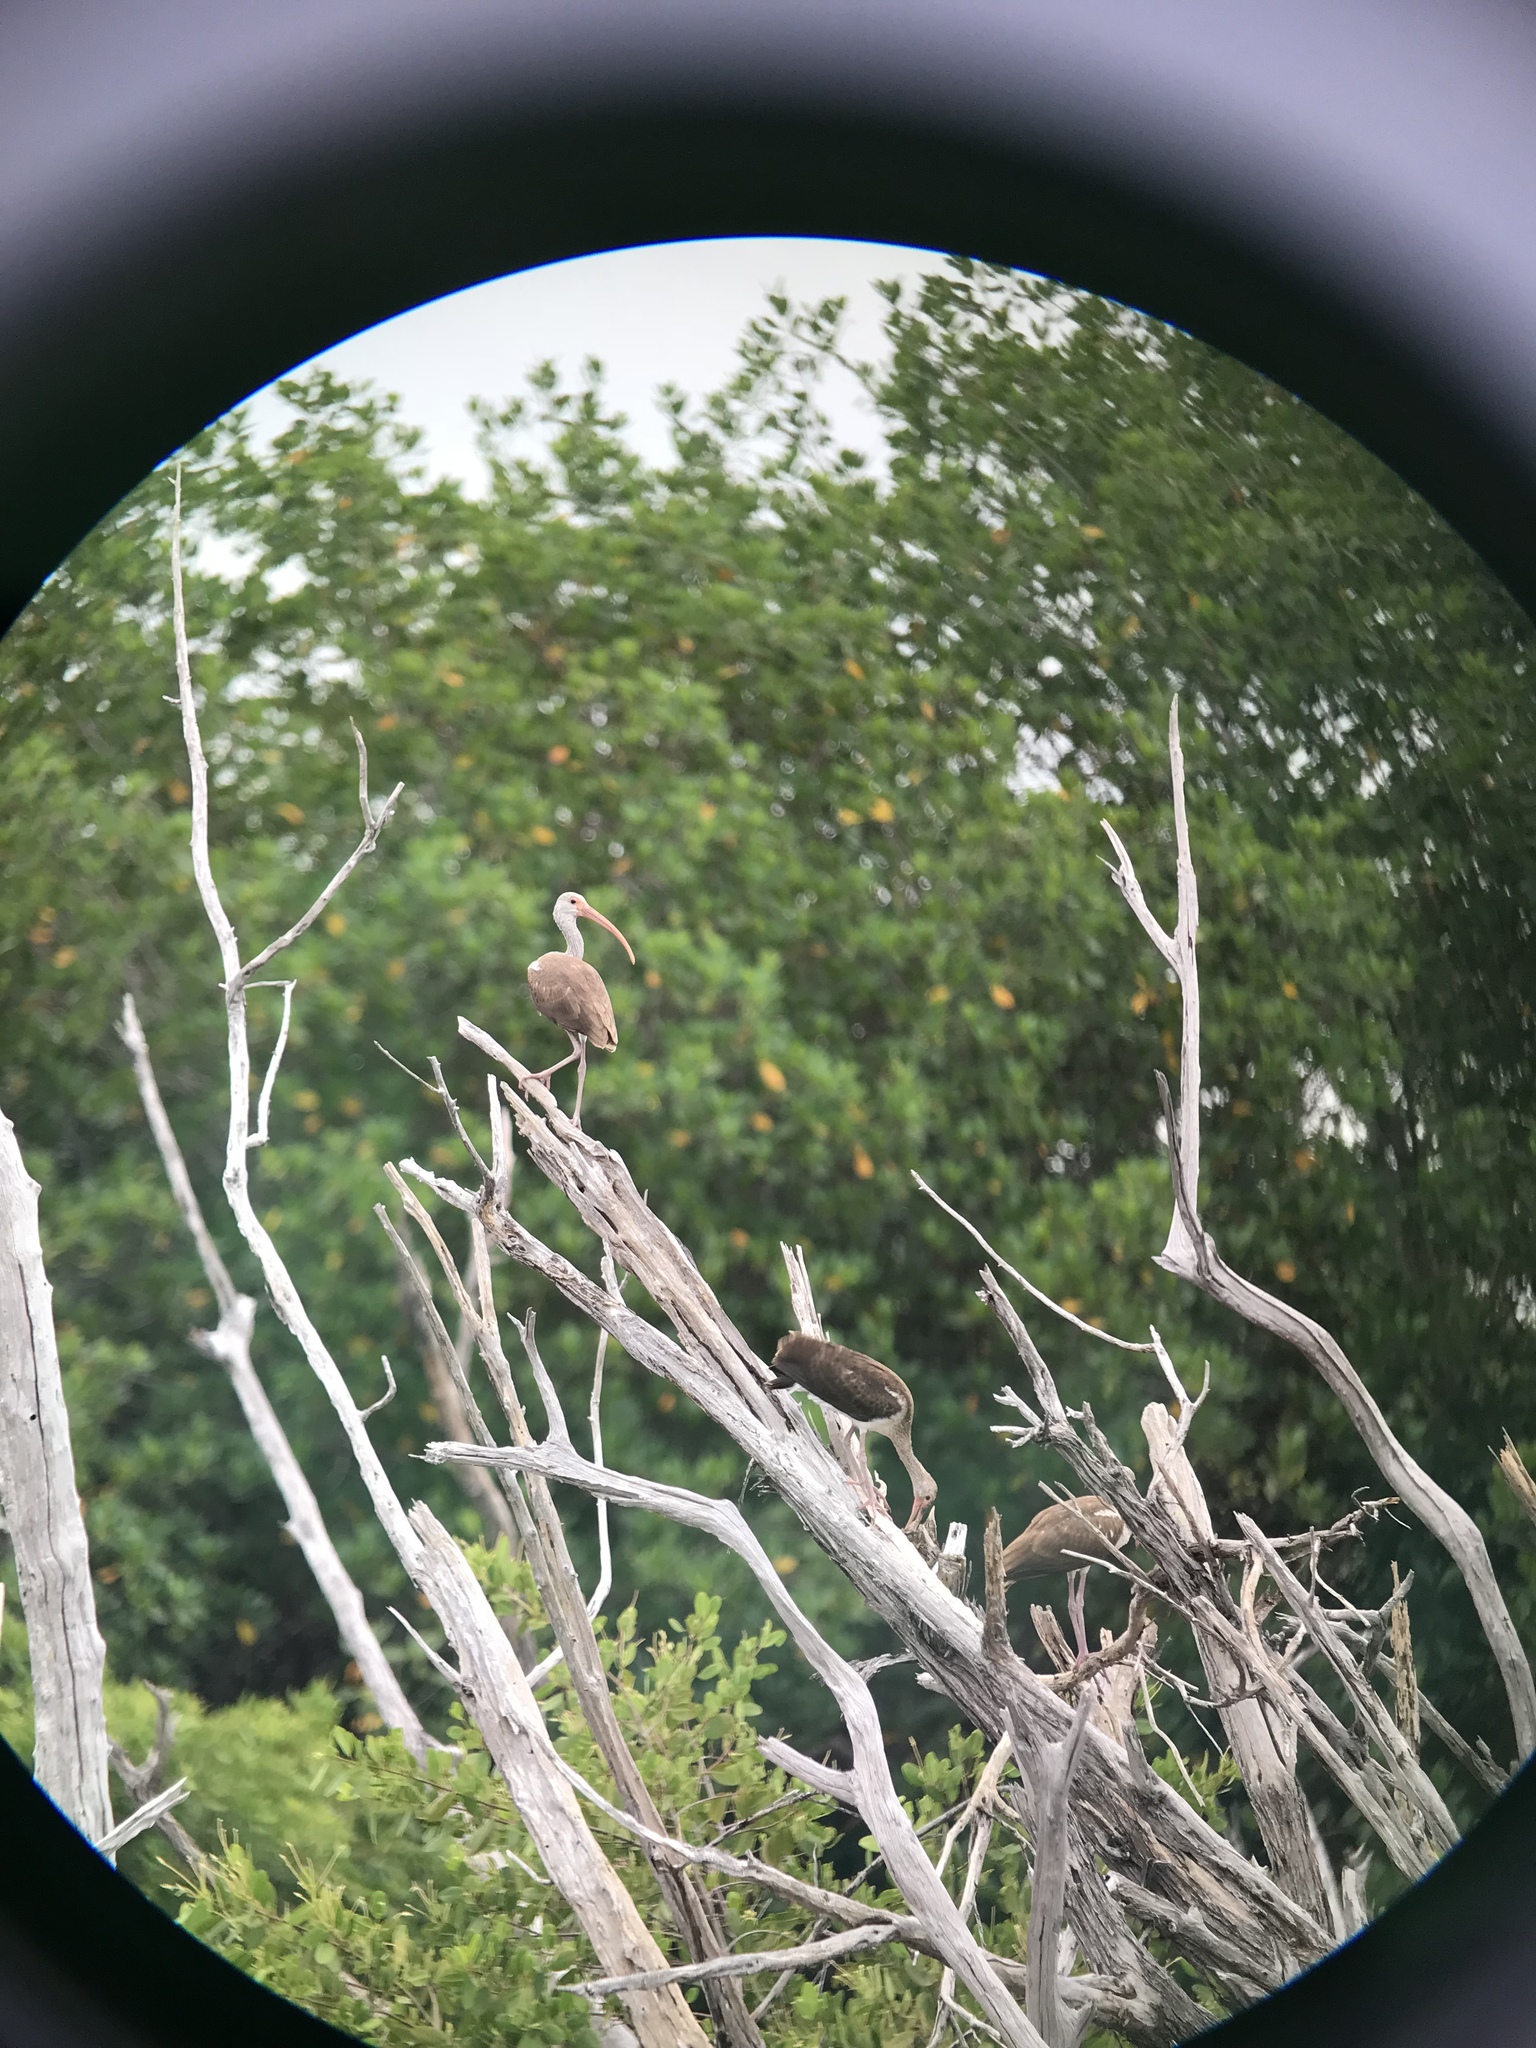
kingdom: Animalia
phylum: Chordata
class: Aves
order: Pelecaniformes
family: Threskiornithidae
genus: Eudocimus
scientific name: Eudocimus albus
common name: White ibis
